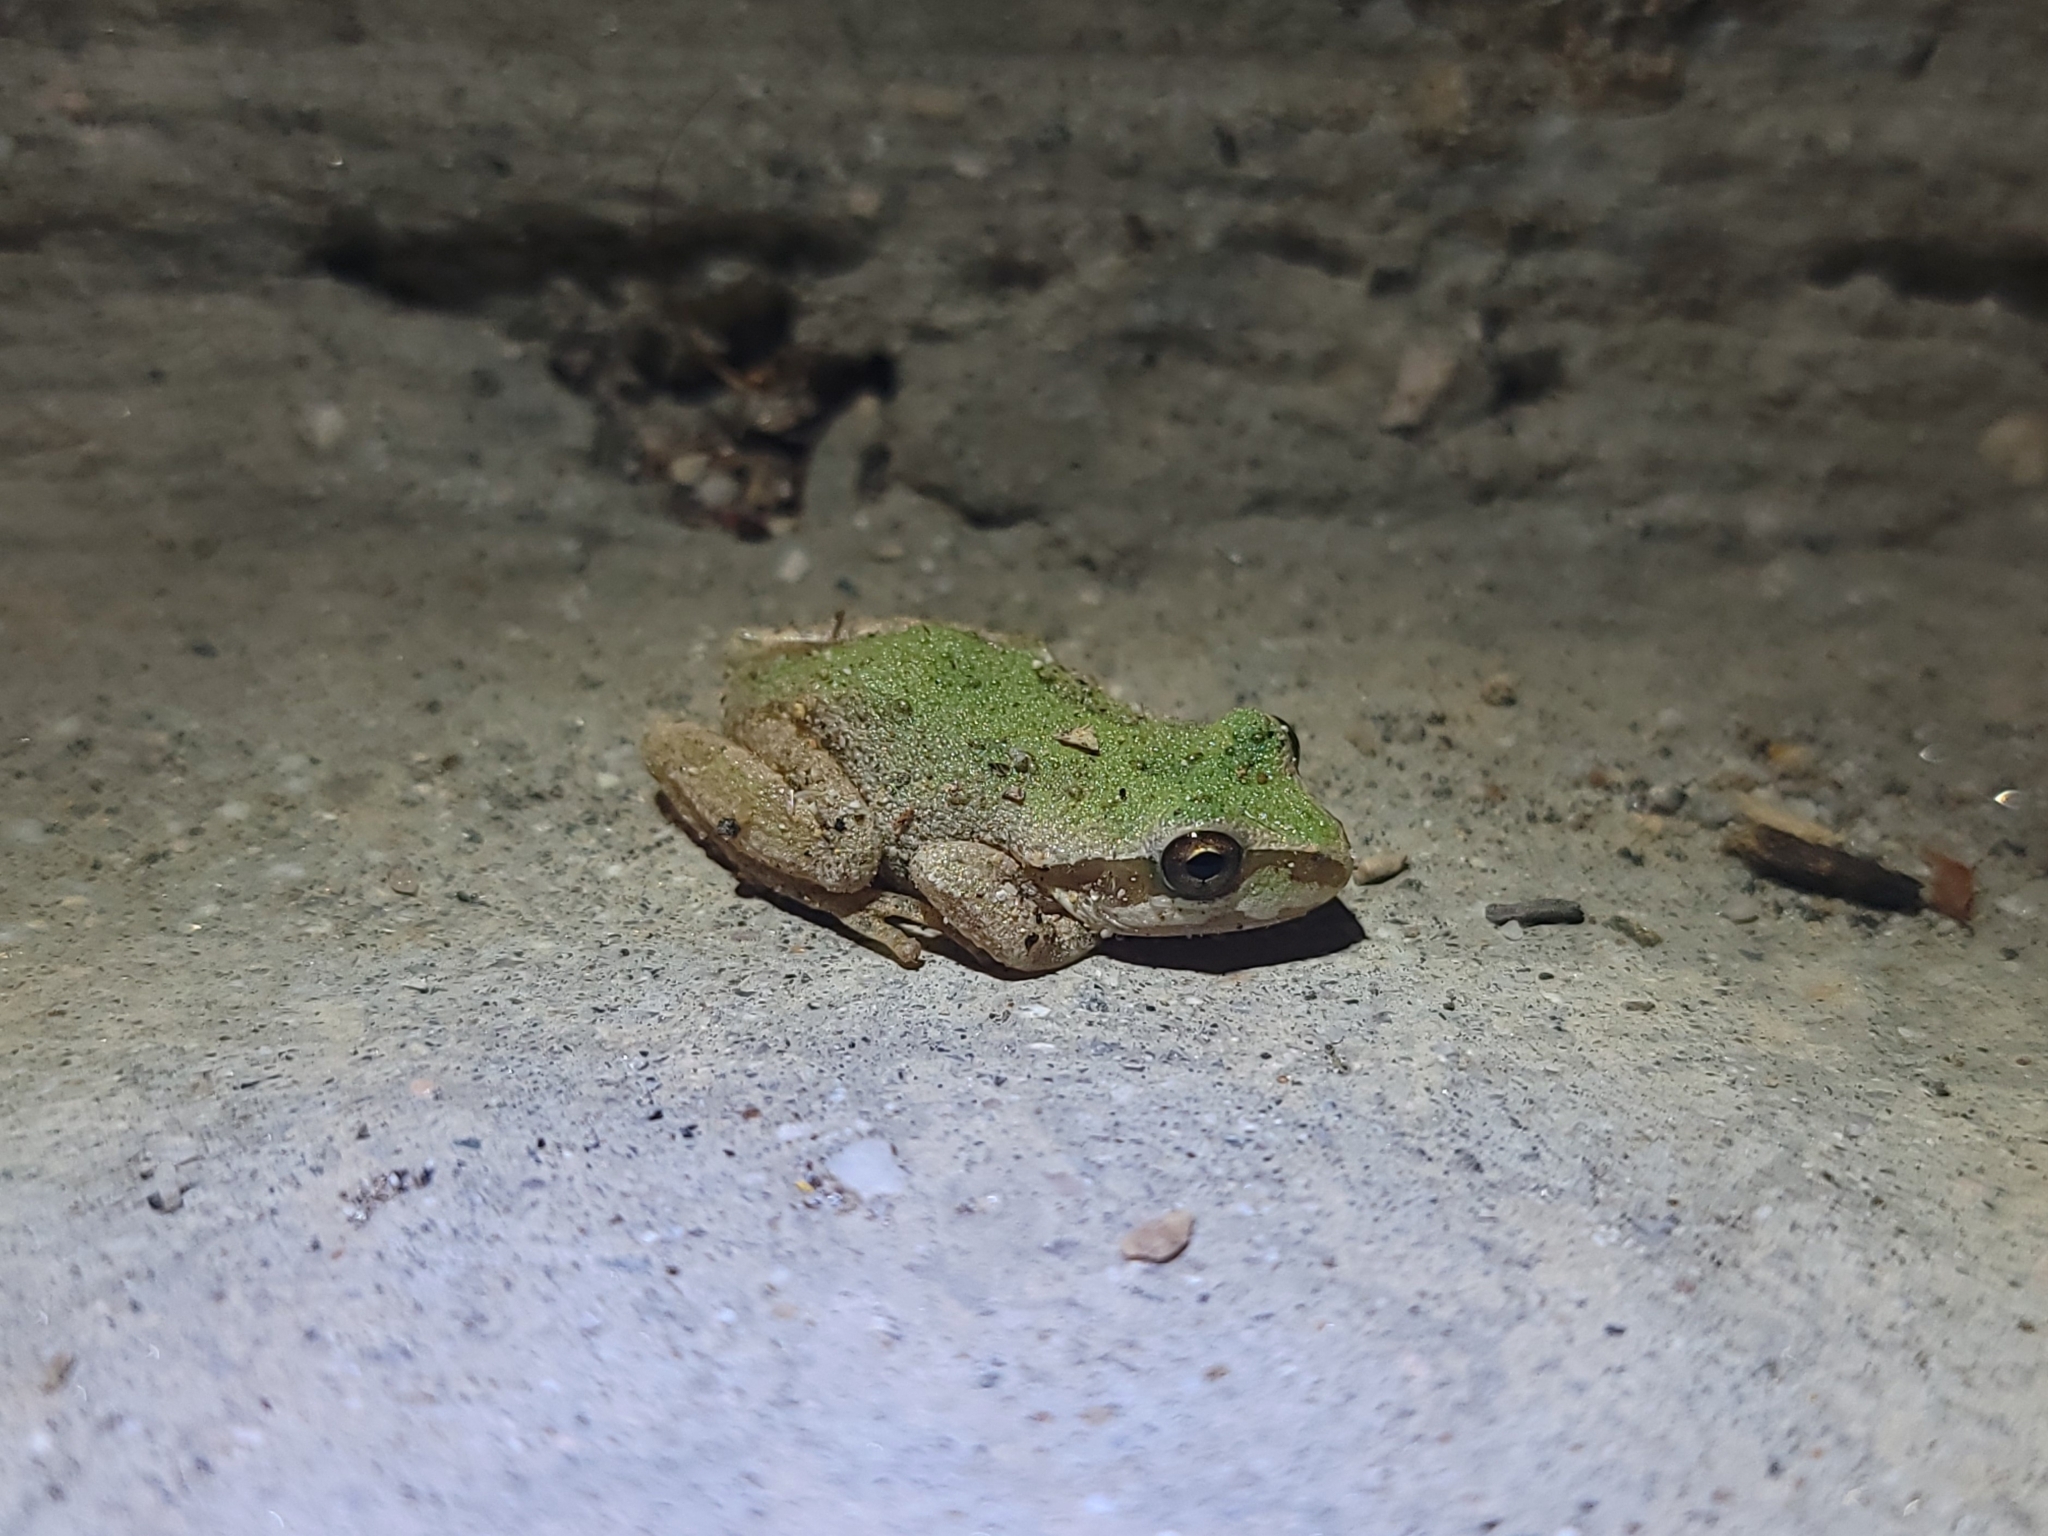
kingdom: Animalia
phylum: Chordata
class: Amphibia
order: Anura
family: Hylidae
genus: Pseudacris
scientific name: Pseudacris regilla
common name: Pacific chorus frog
